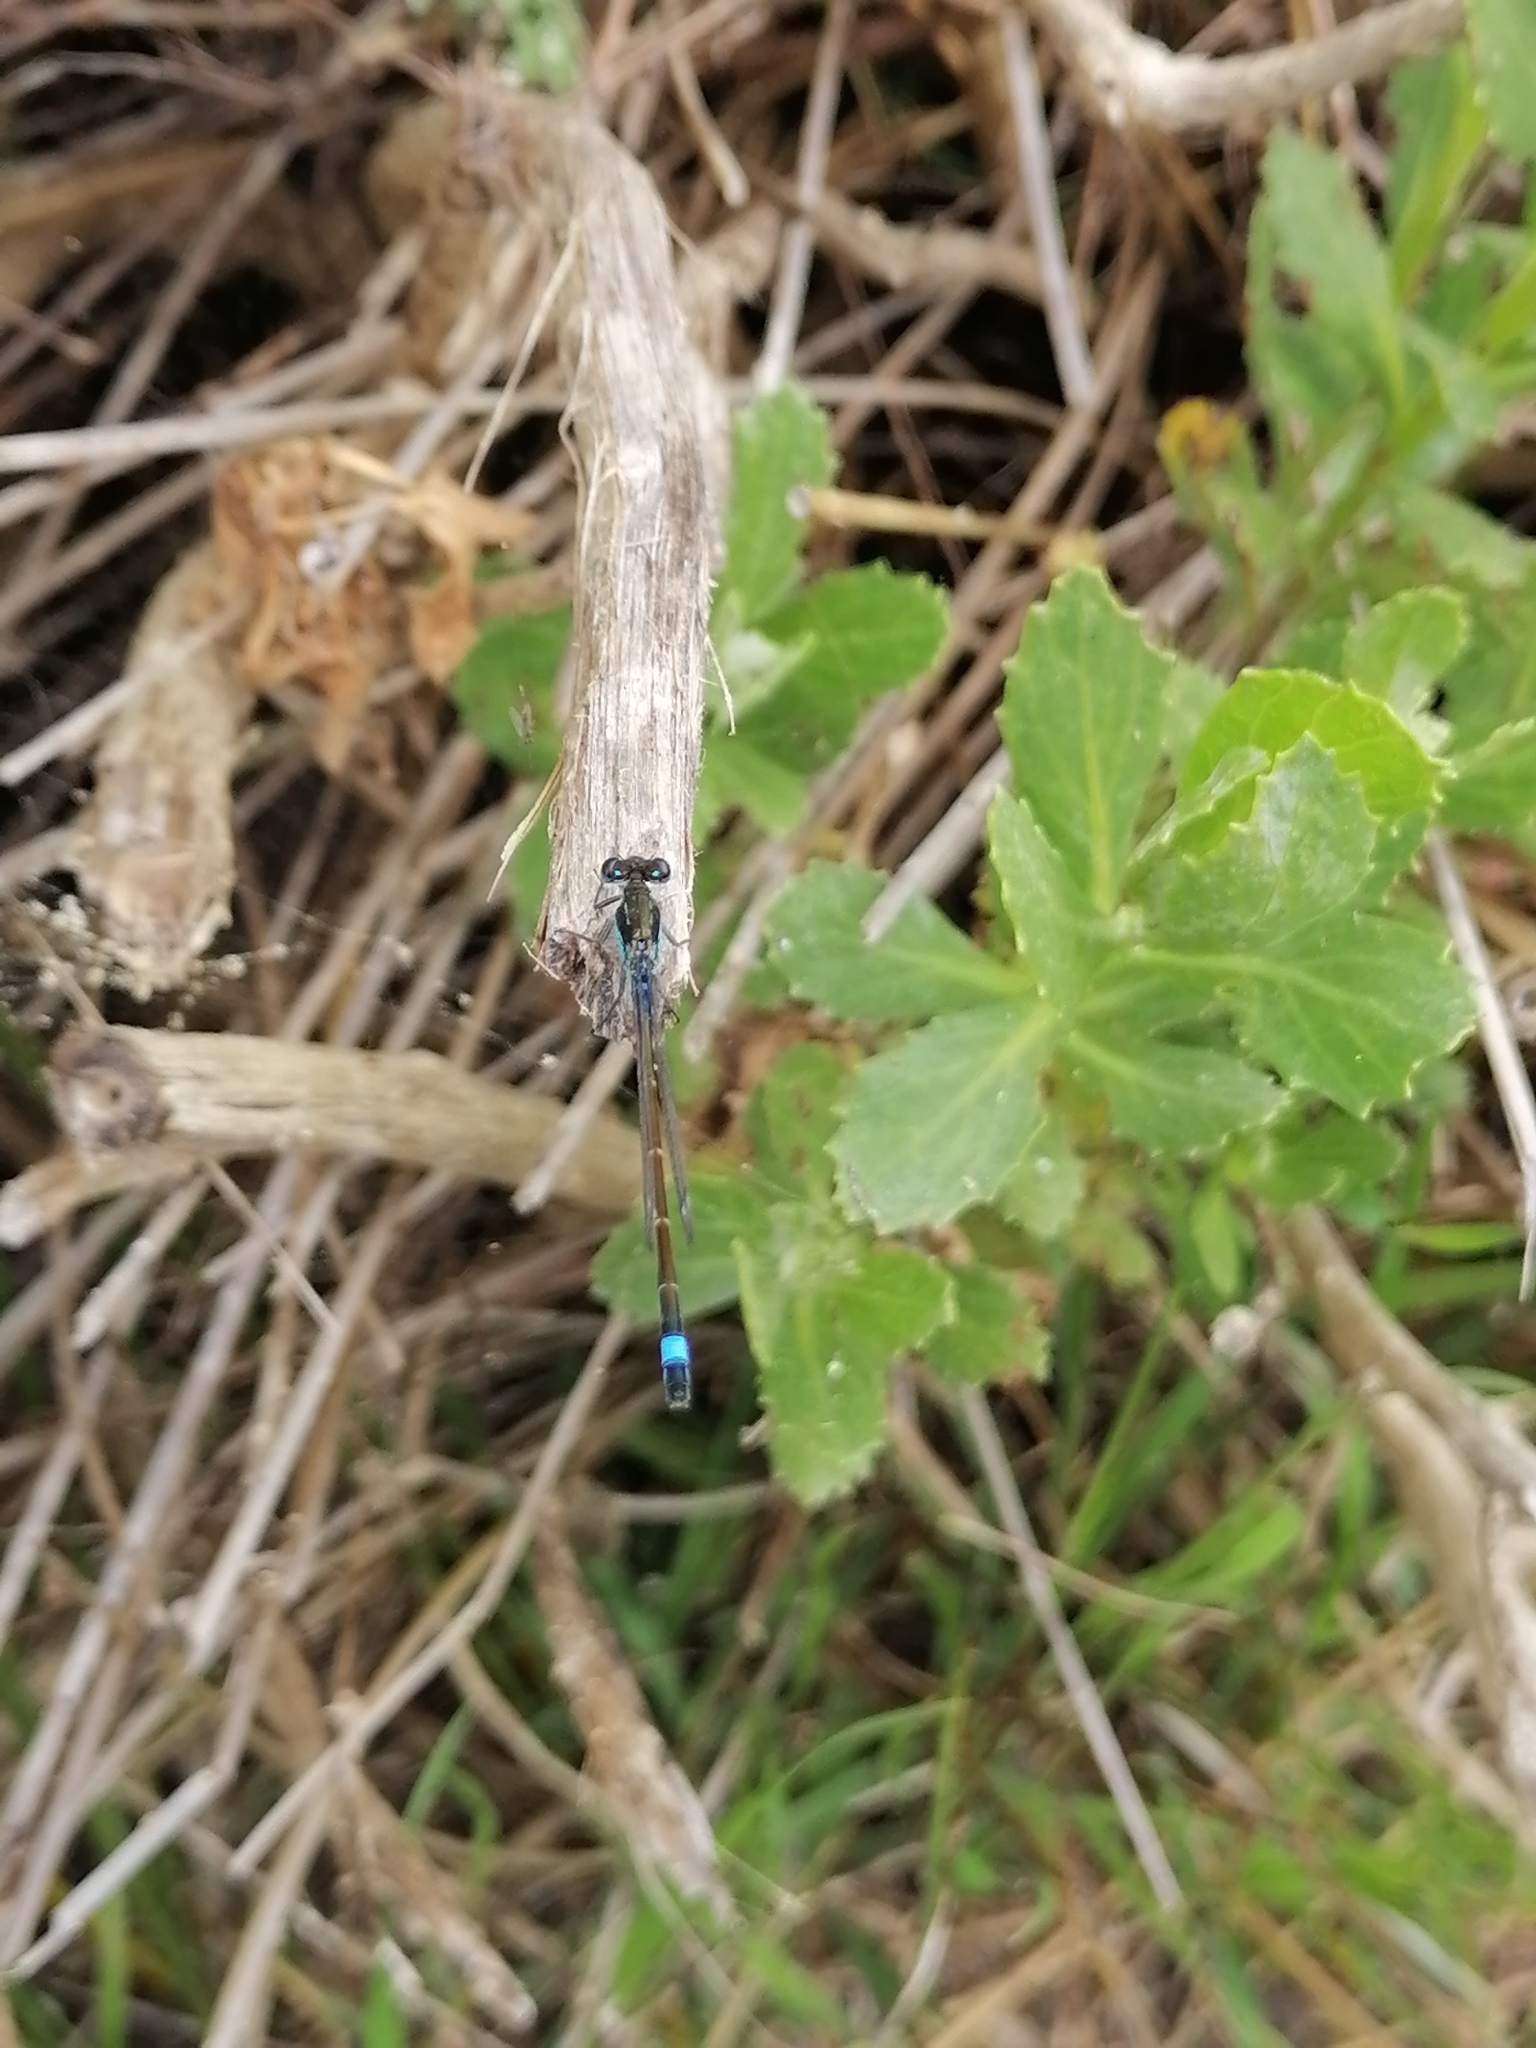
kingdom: Animalia
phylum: Arthropoda
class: Insecta
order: Odonata
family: Coenagrionidae
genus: Ischnura
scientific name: Ischnura senegalensis
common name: Tropical bluetail
